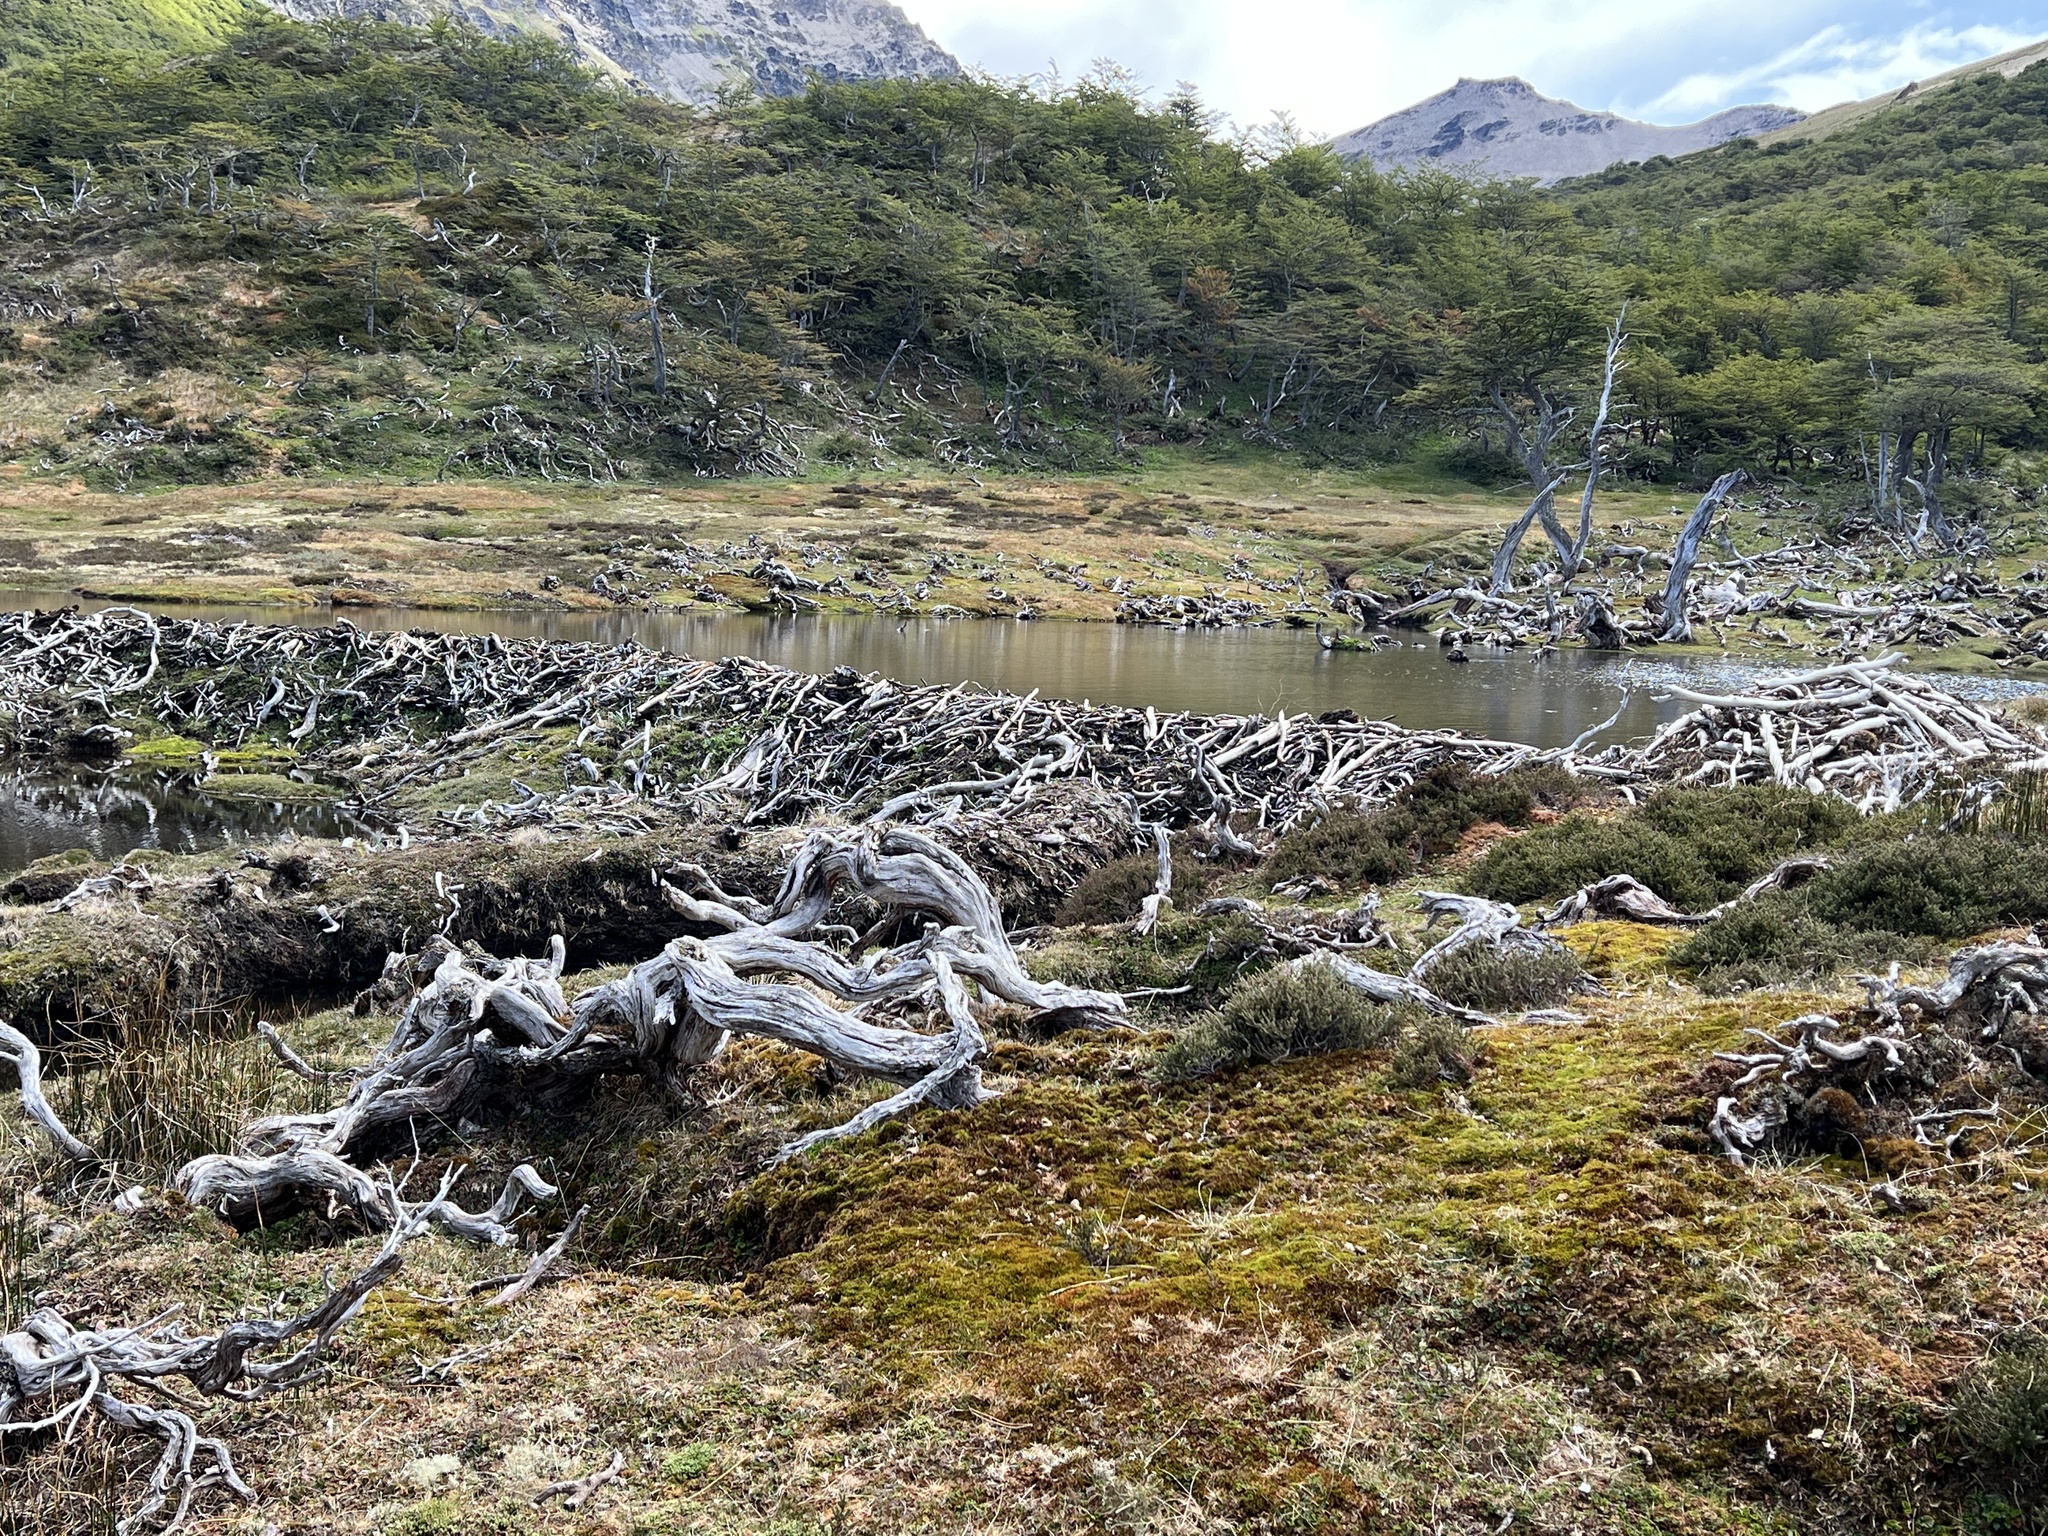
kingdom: Animalia
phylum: Chordata
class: Mammalia
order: Rodentia
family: Castoridae
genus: Castor
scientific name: Castor canadensis
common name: American beaver
